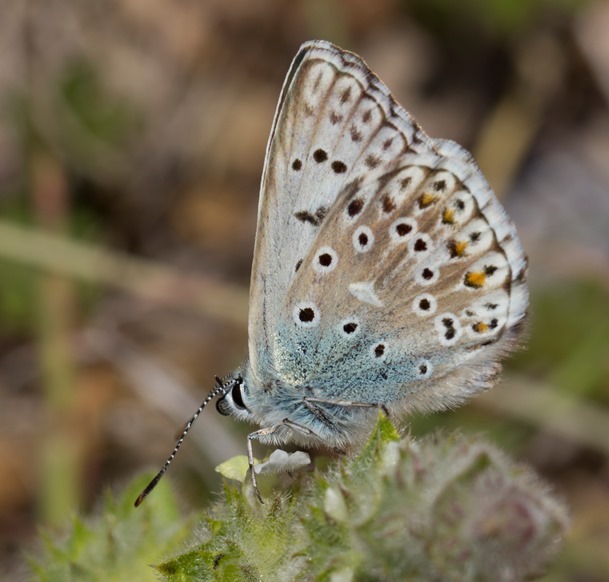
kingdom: Animalia
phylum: Arthropoda
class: Insecta
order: Lepidoptera
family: Lycaenidae
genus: Lysandra
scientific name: Lysandra hispana
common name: Provence chalkhill blue
